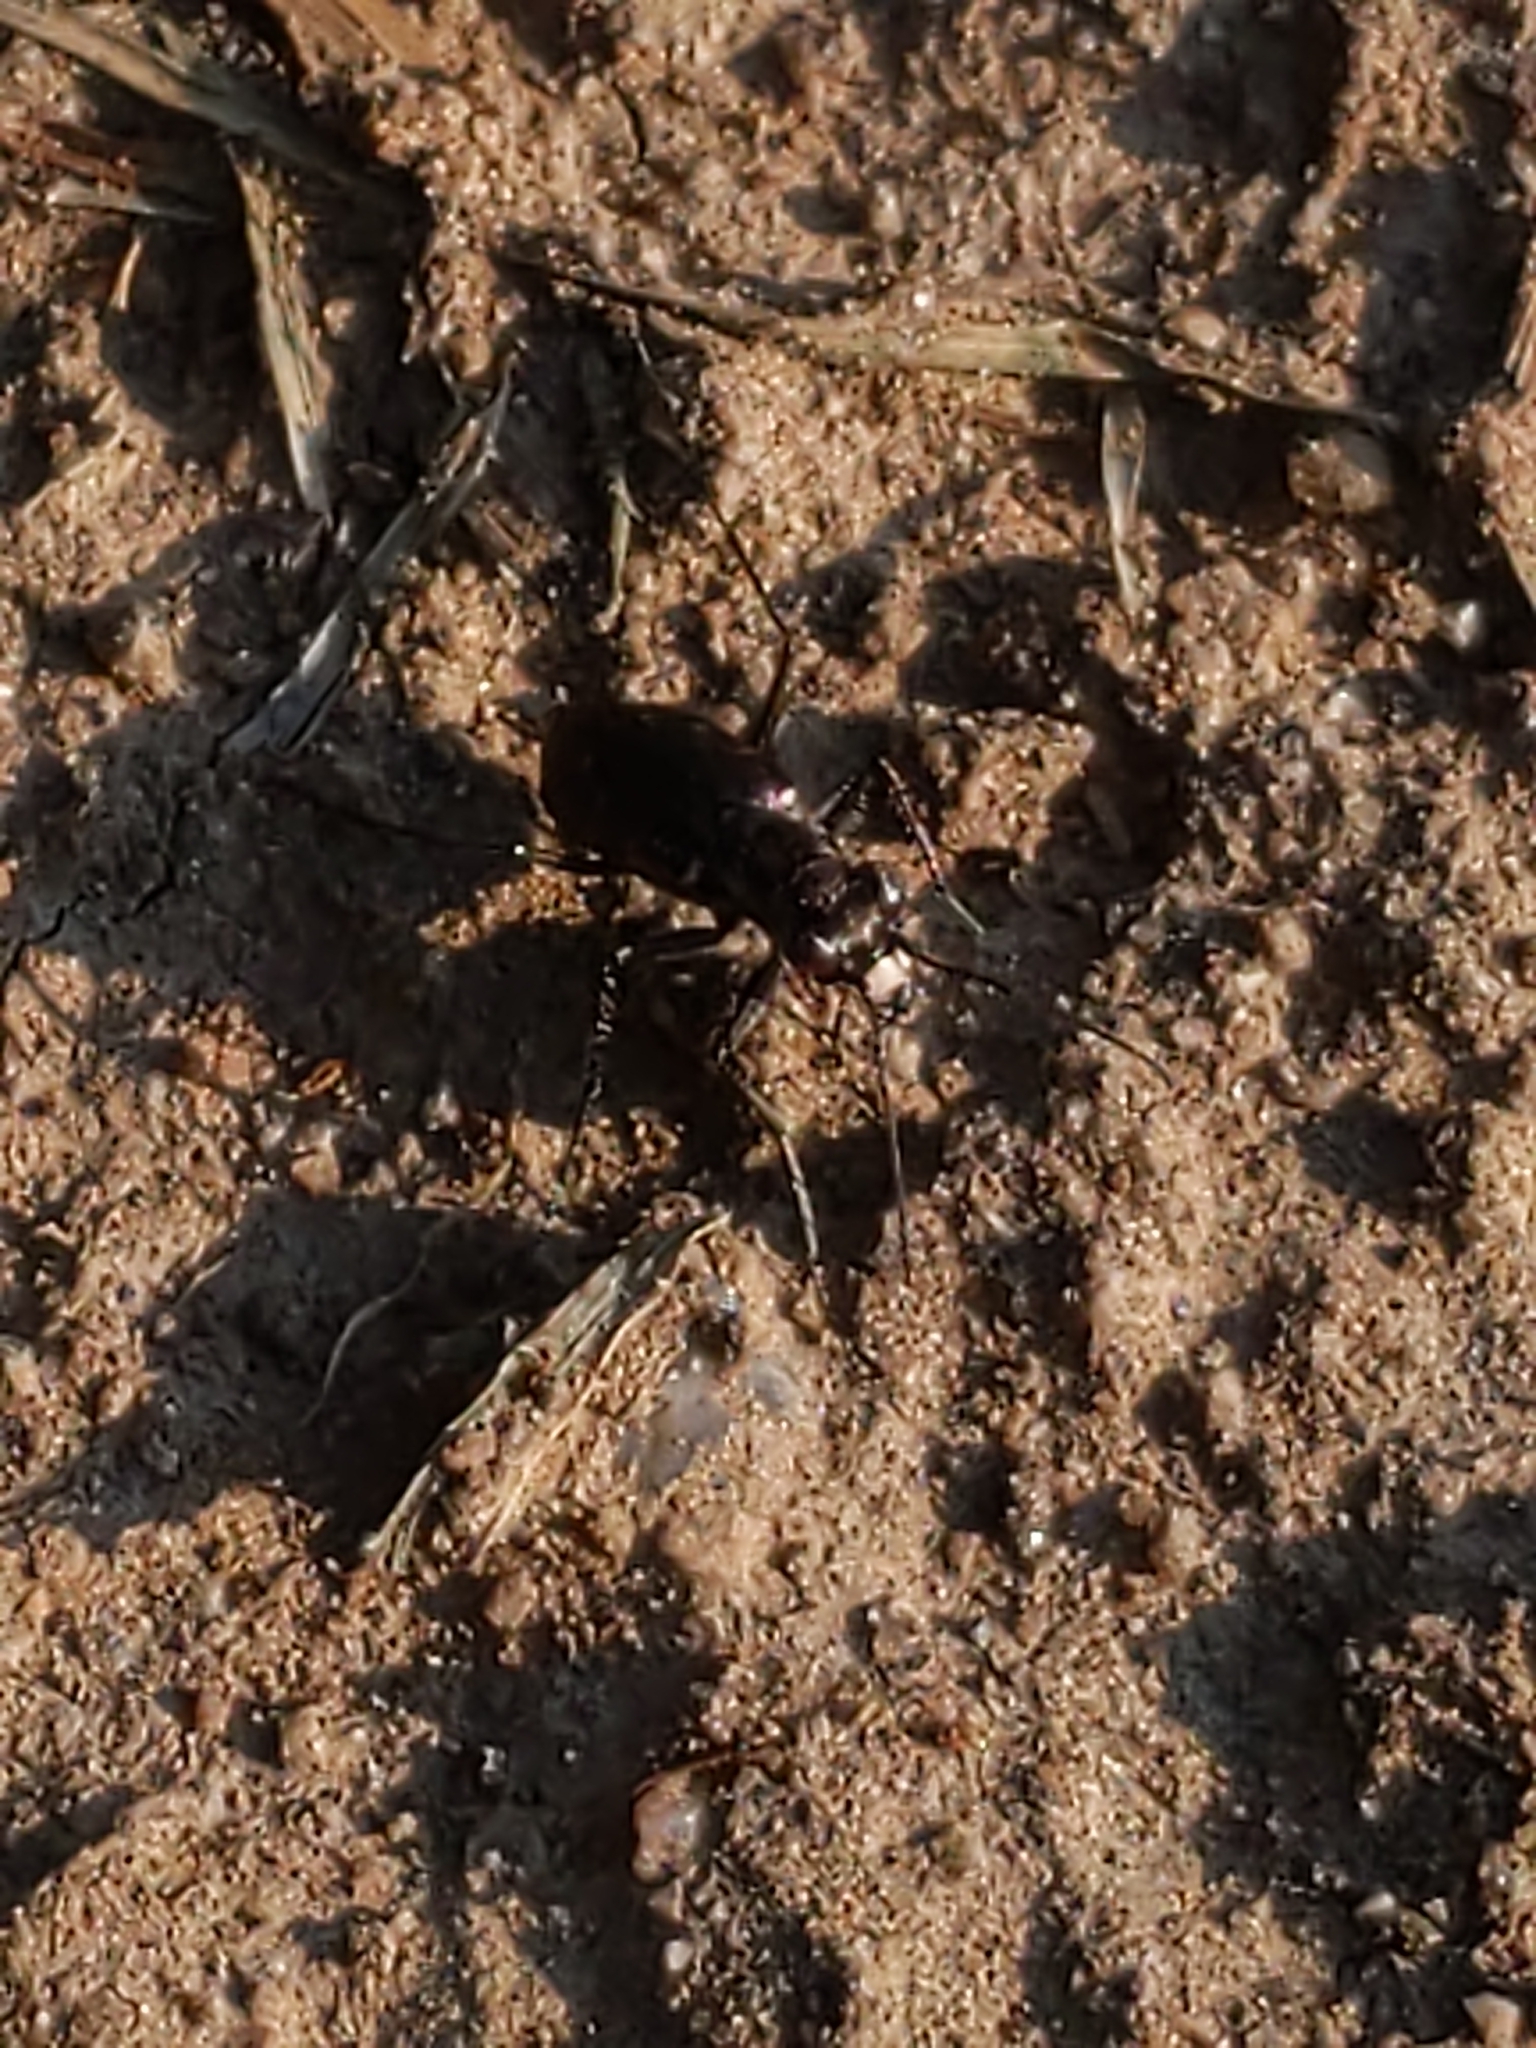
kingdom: Animalia
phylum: Arthropoda
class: Insecta
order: Coleoptera
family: Carabidae
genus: Cicindela
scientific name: Cicindela punctulata
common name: Punctured tiger beetle
